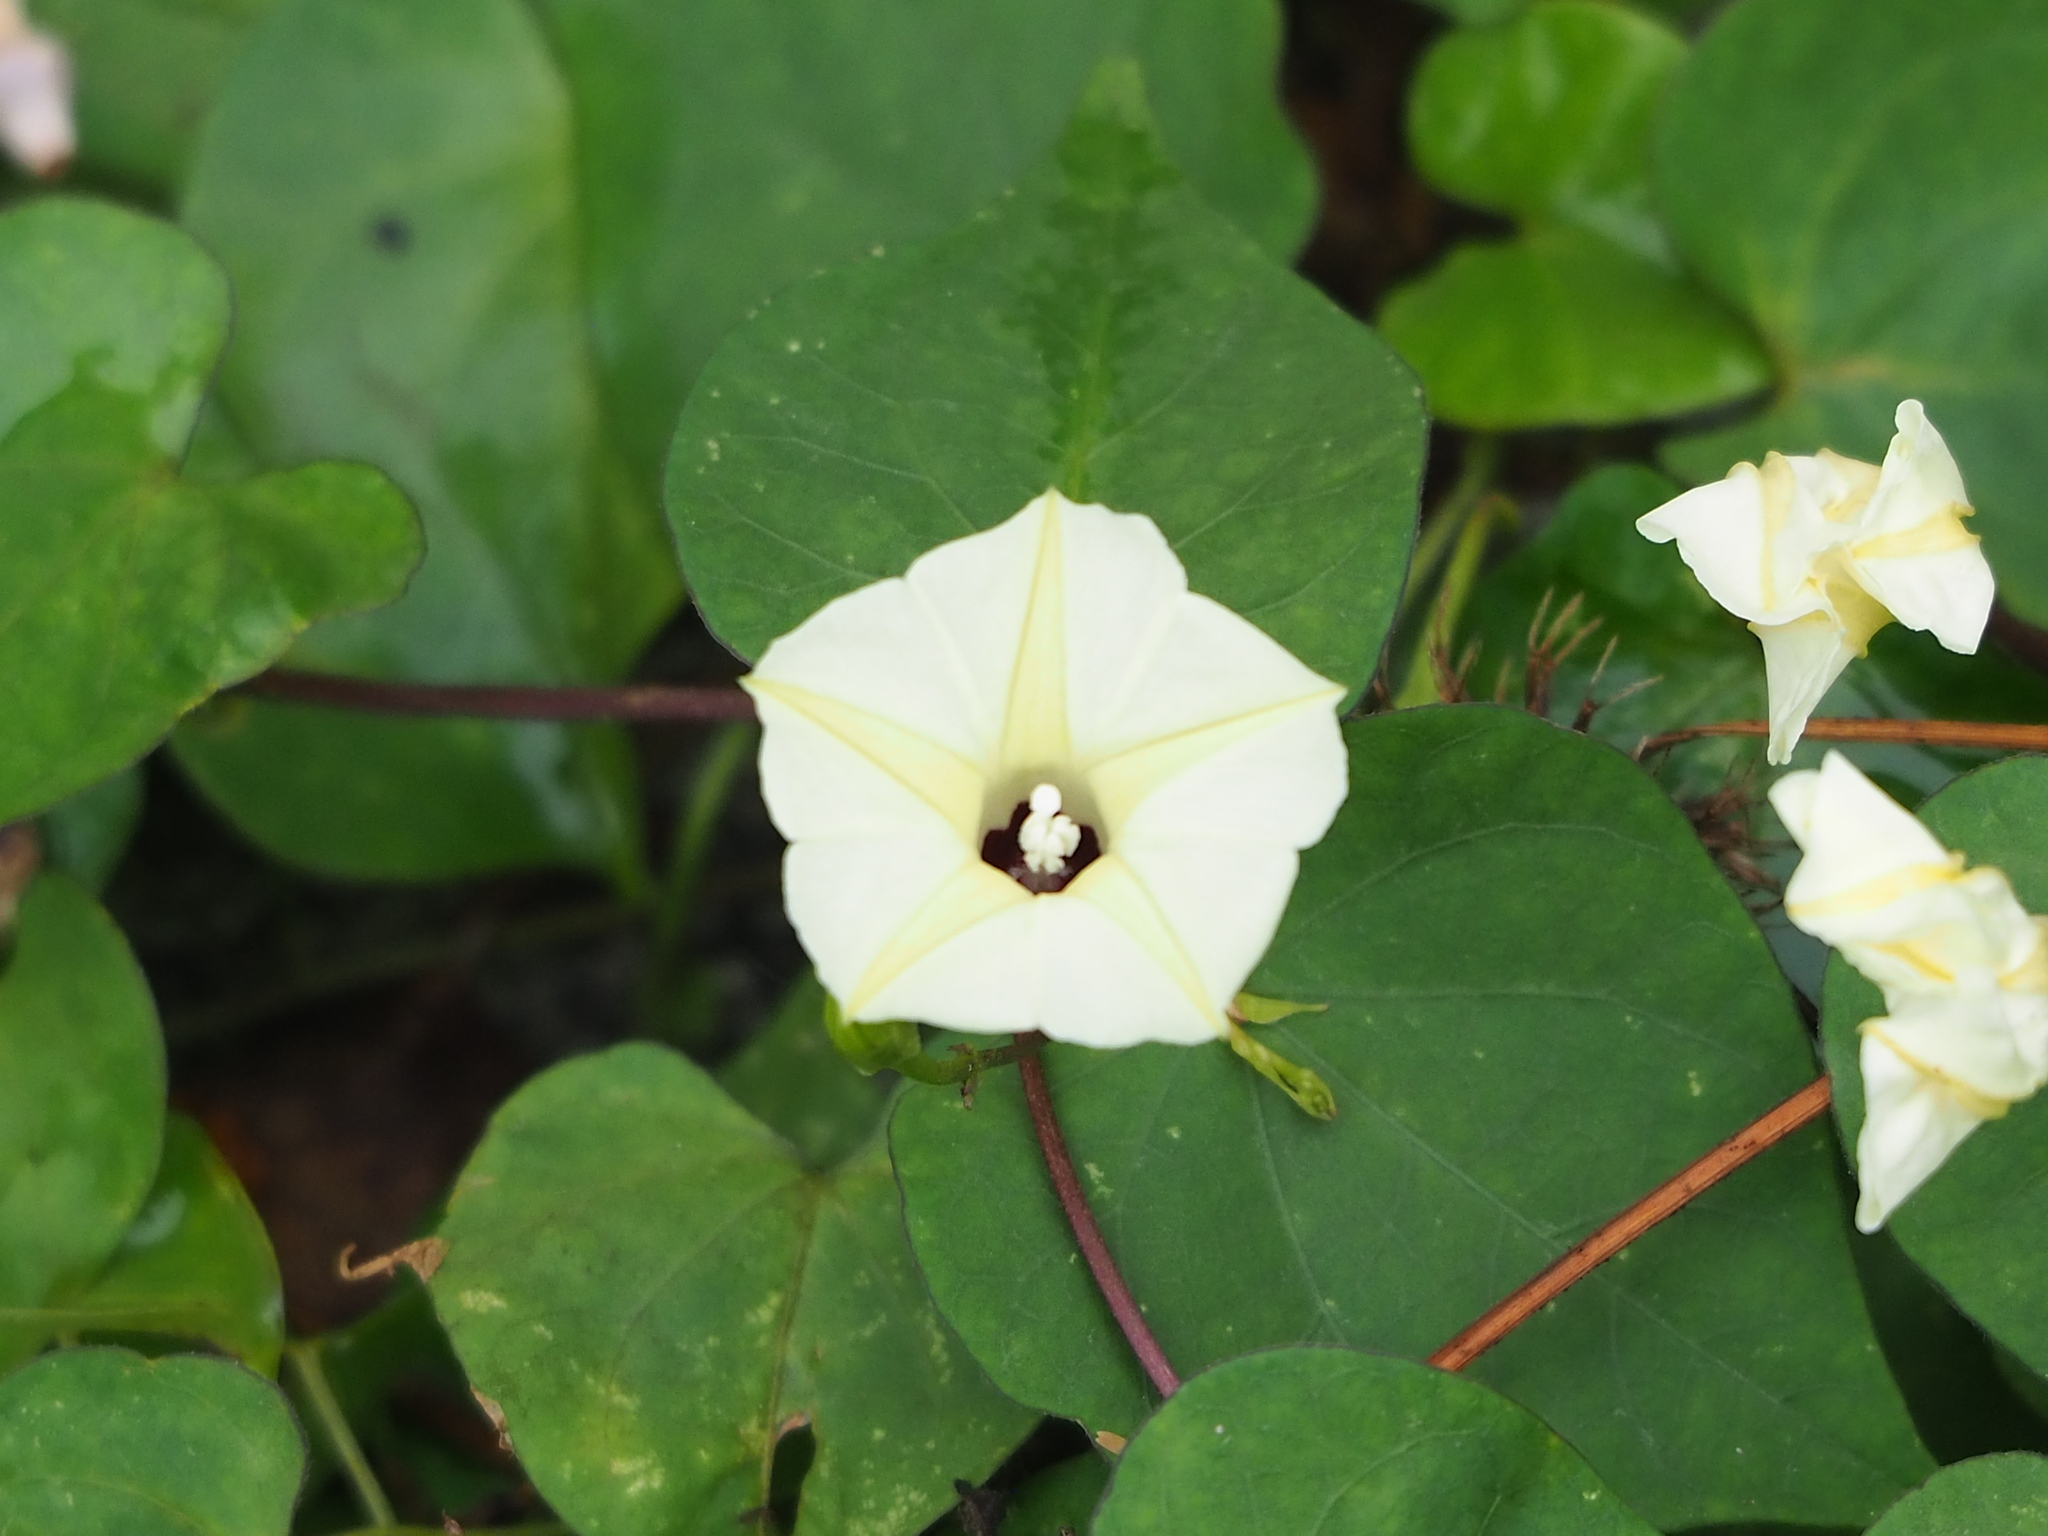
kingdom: Plantae
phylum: Tracheophyta
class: Magnoliopsida
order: Solanales
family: Convolvulaceae
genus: Ipomoea
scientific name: Ipomoea obscura
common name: Obscure morning-glory
